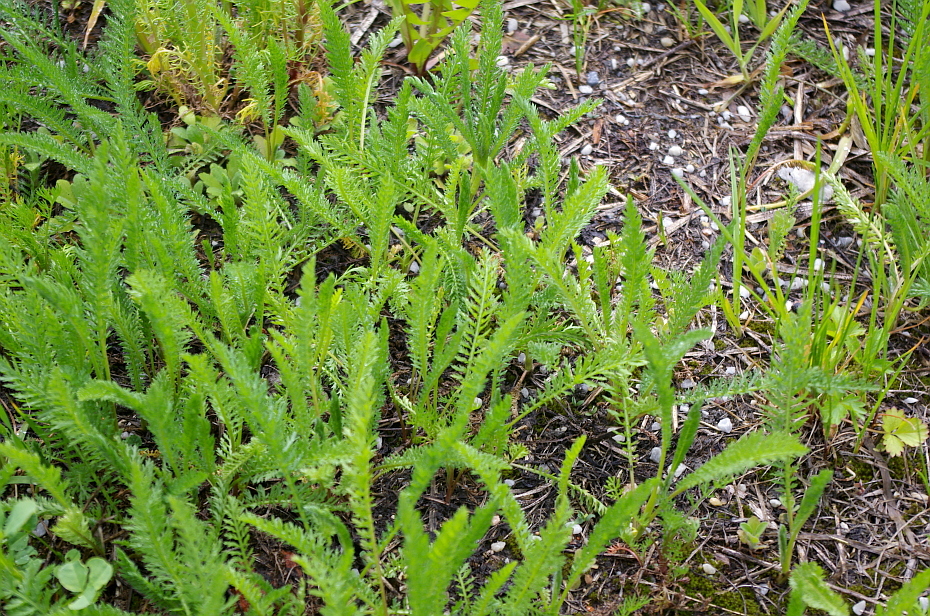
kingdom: Plantae
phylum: Tracheophyta
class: Magnoliopsida
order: Asterales
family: Asteraceae
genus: Achillea
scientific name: Achillea millefolium
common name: Yarrow
